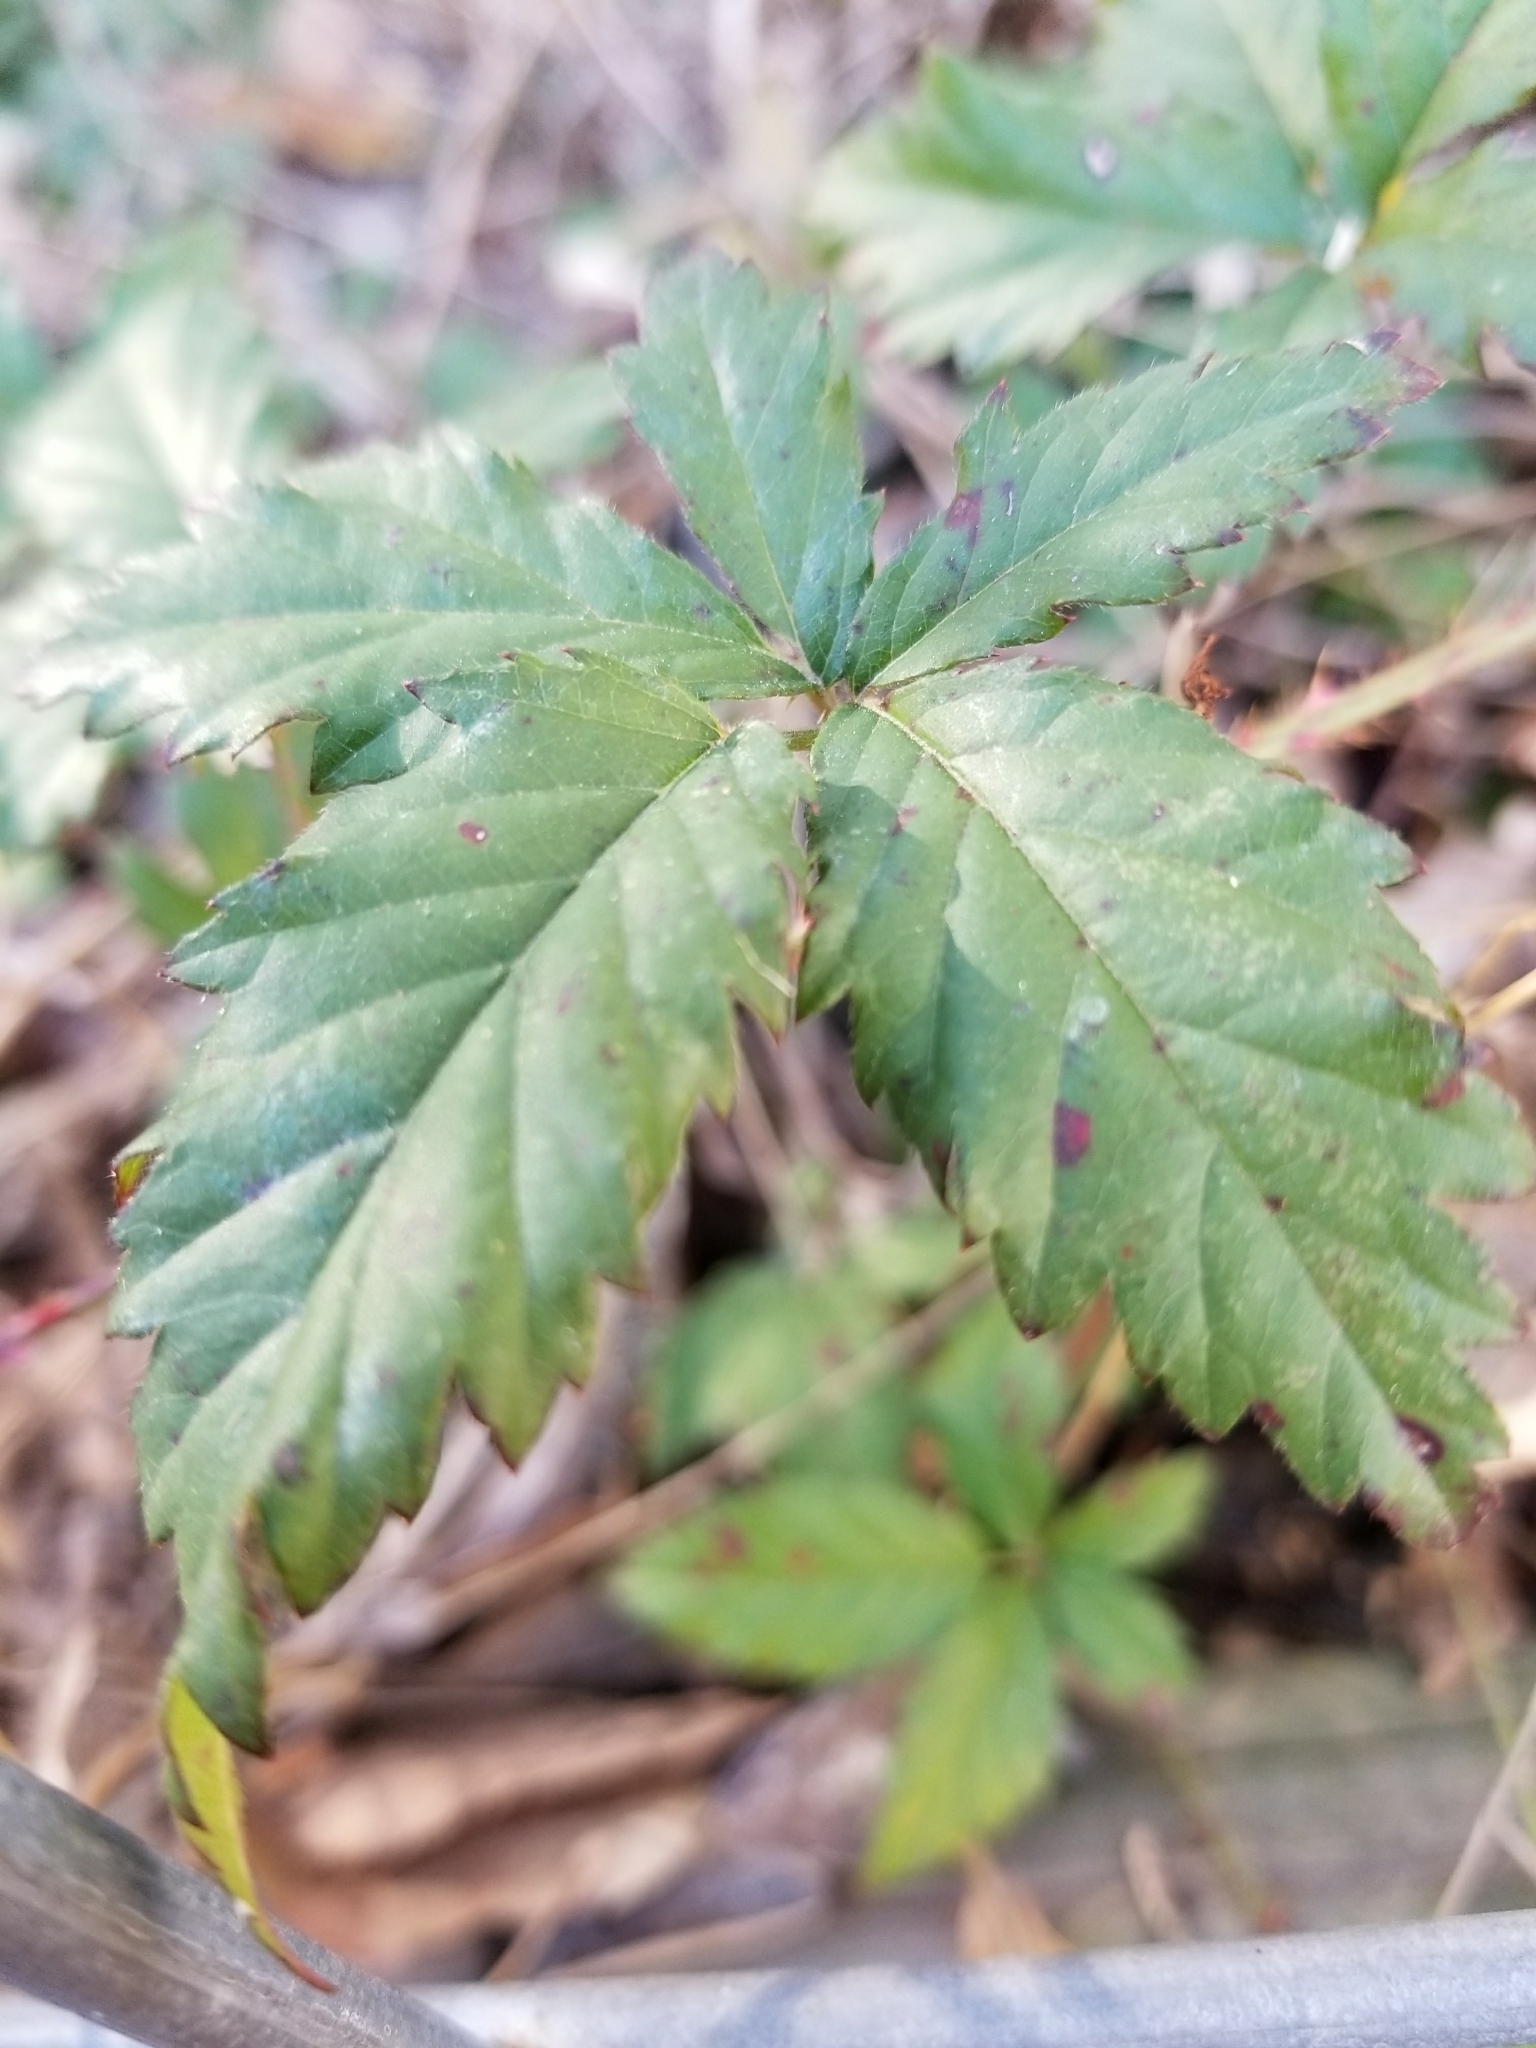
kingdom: Plantae
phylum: Tracheophyta
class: Magnoliopsida
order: Rosales
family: Rosaceae
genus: Rubus
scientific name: Rubus trivialis
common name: Southern dewberry
